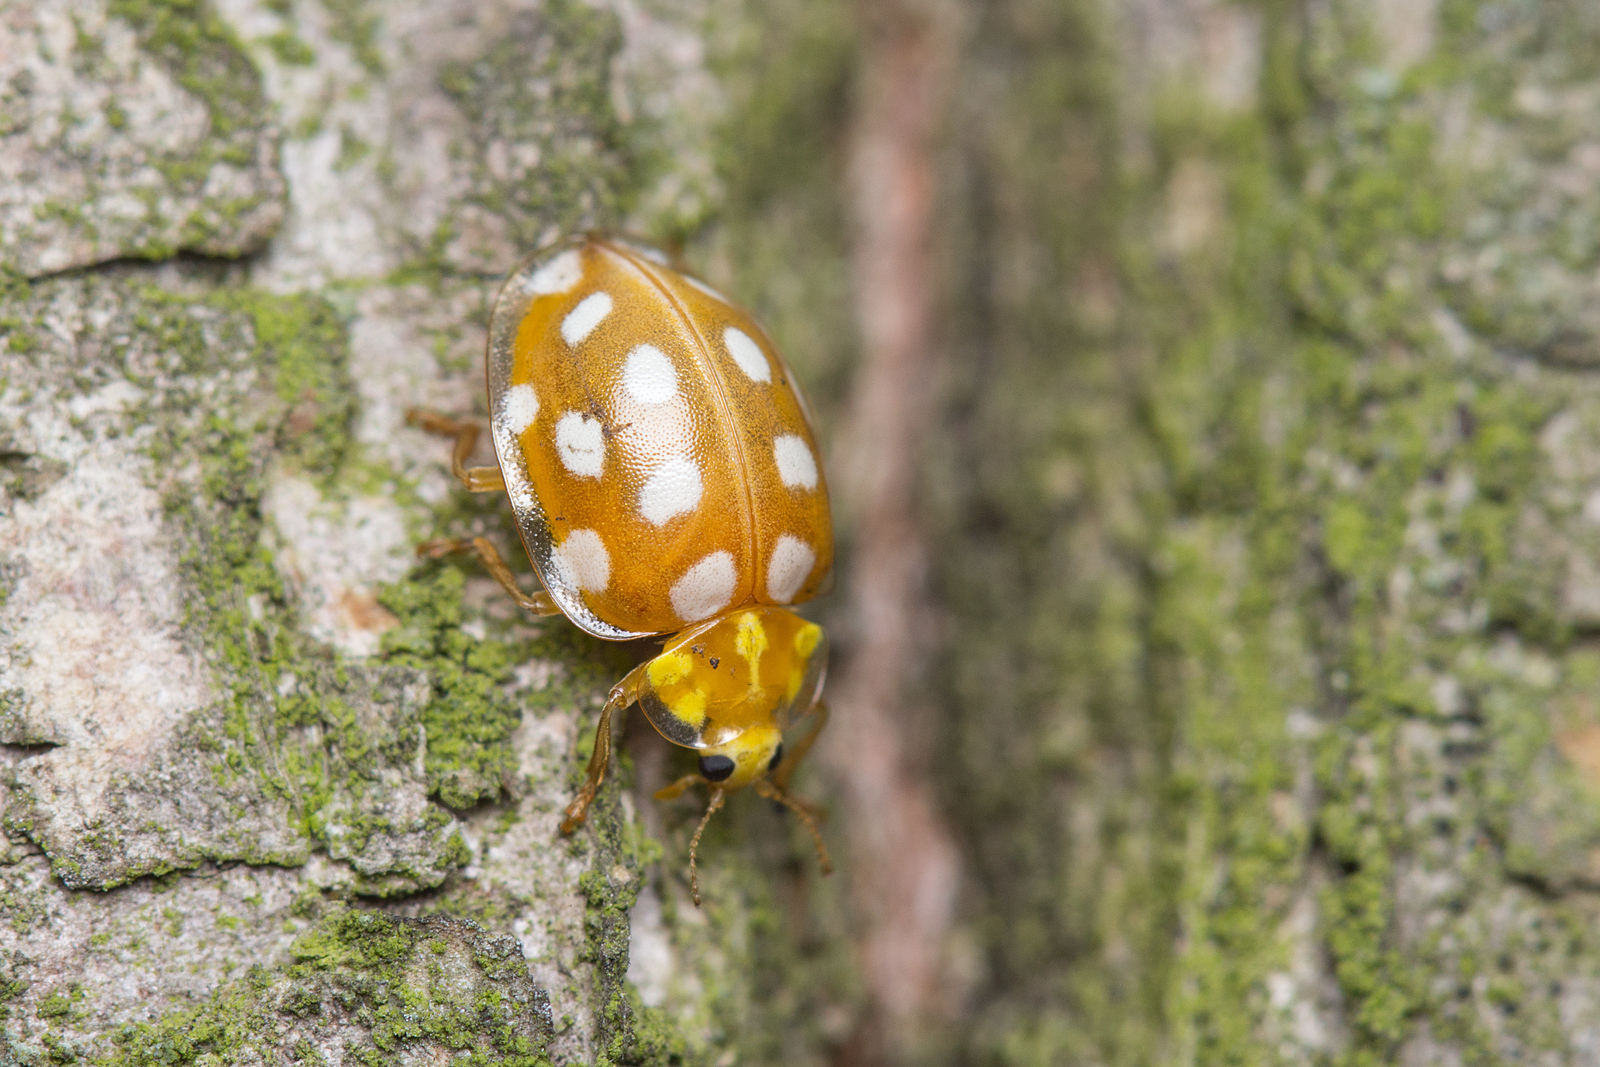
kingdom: Animalia
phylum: Arthropoda
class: Insecta
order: Coleoptera
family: Coccinellidae
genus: Halyzia
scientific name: Halyzia sedecimguttata
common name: Orange ladybird
